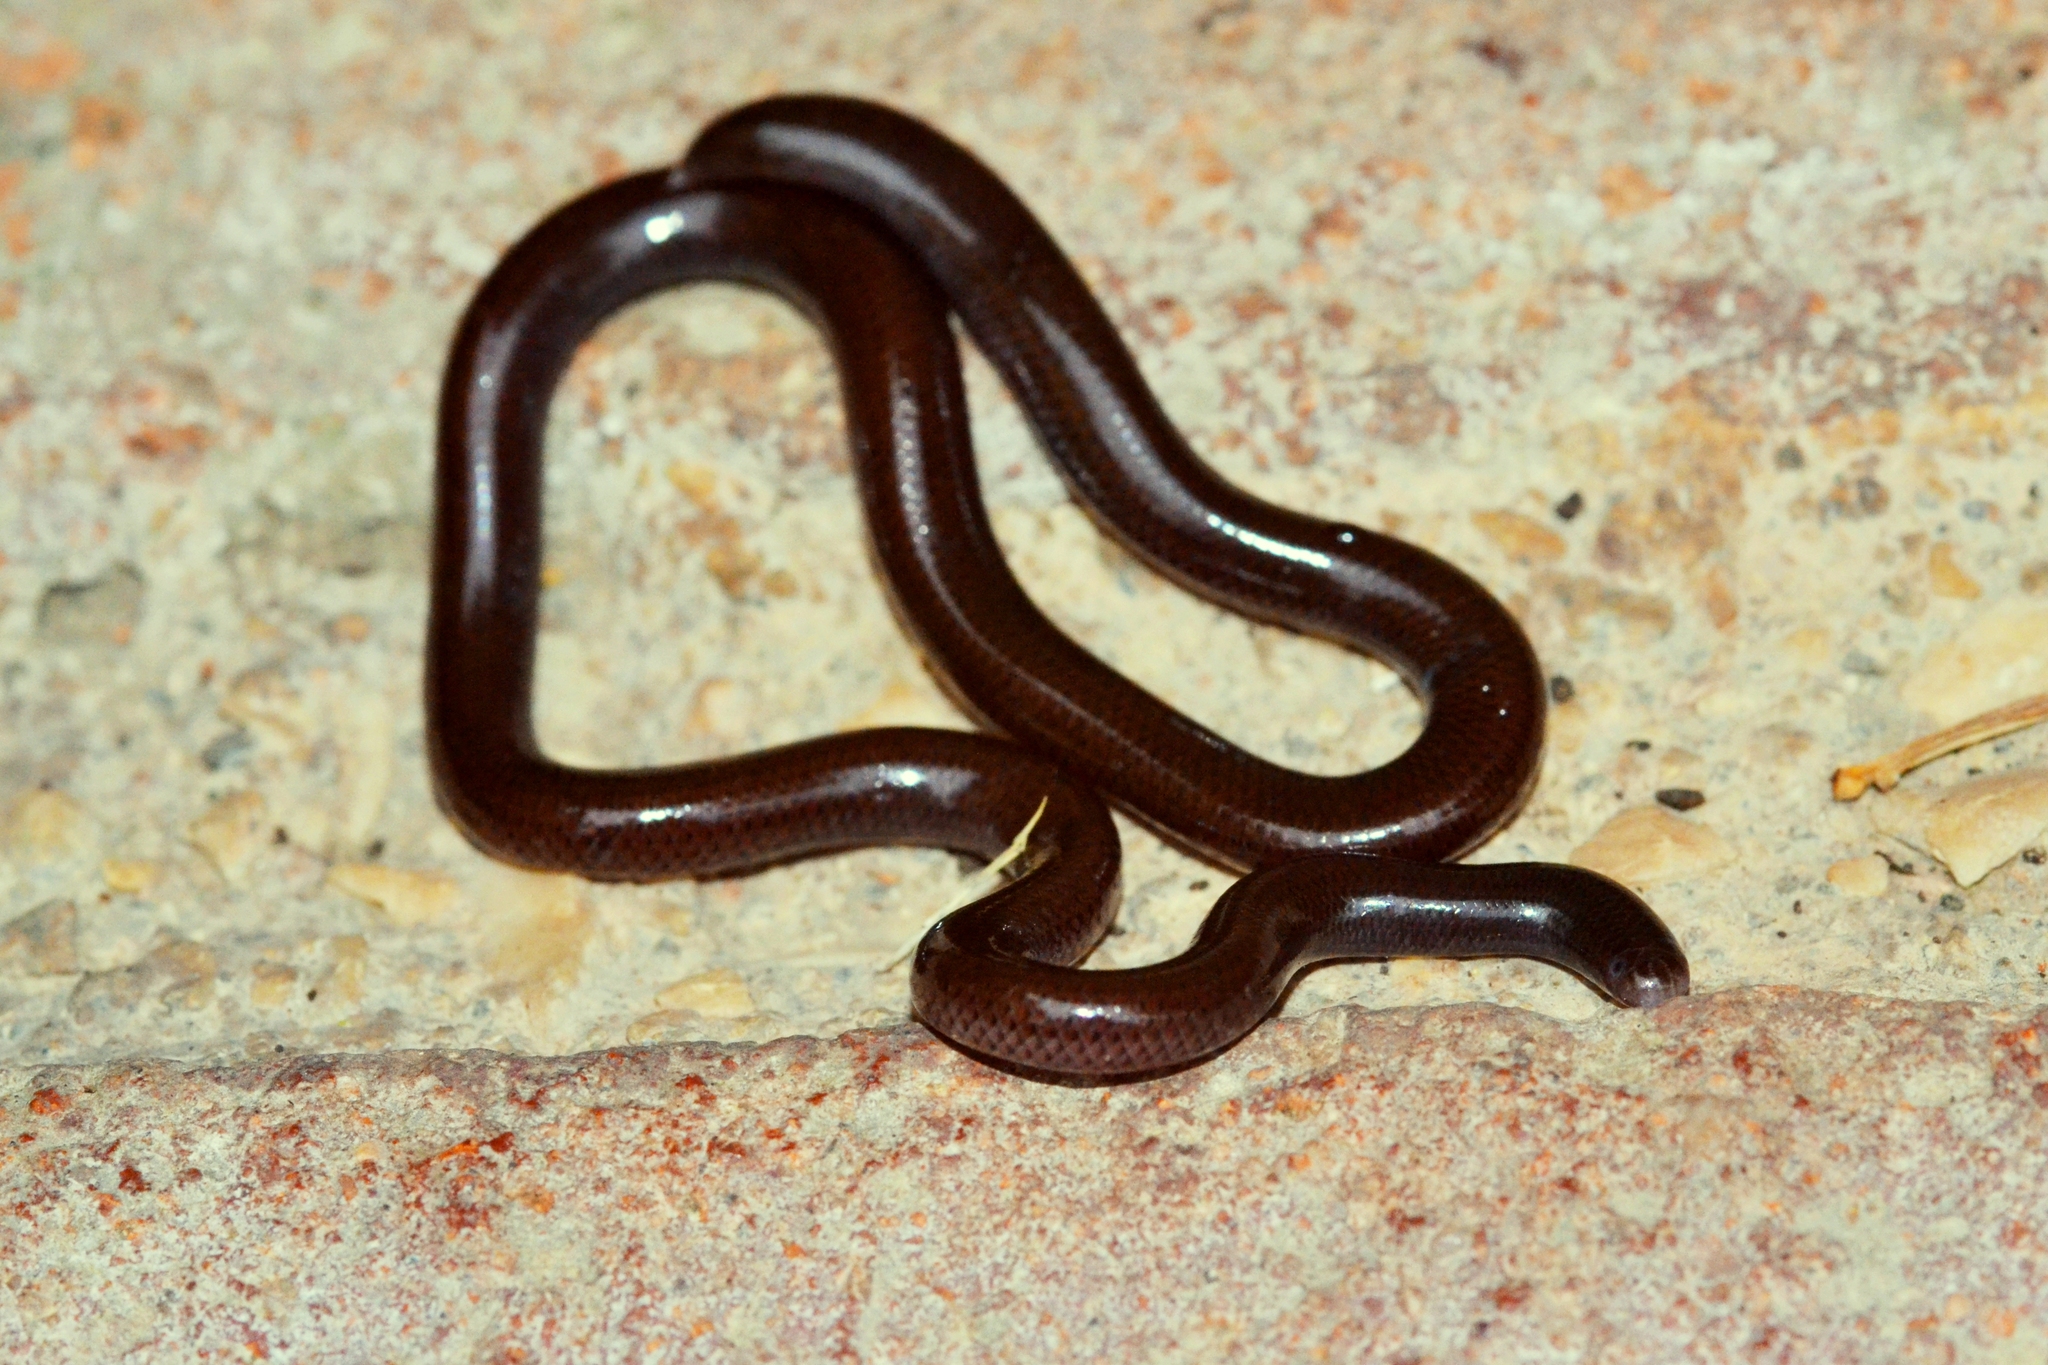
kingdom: Animalia
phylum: Chordata
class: Squamata
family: Typhlopidae
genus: Indotyphlops
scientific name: Indotyphlops braminus
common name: Brahminy blindsnake
